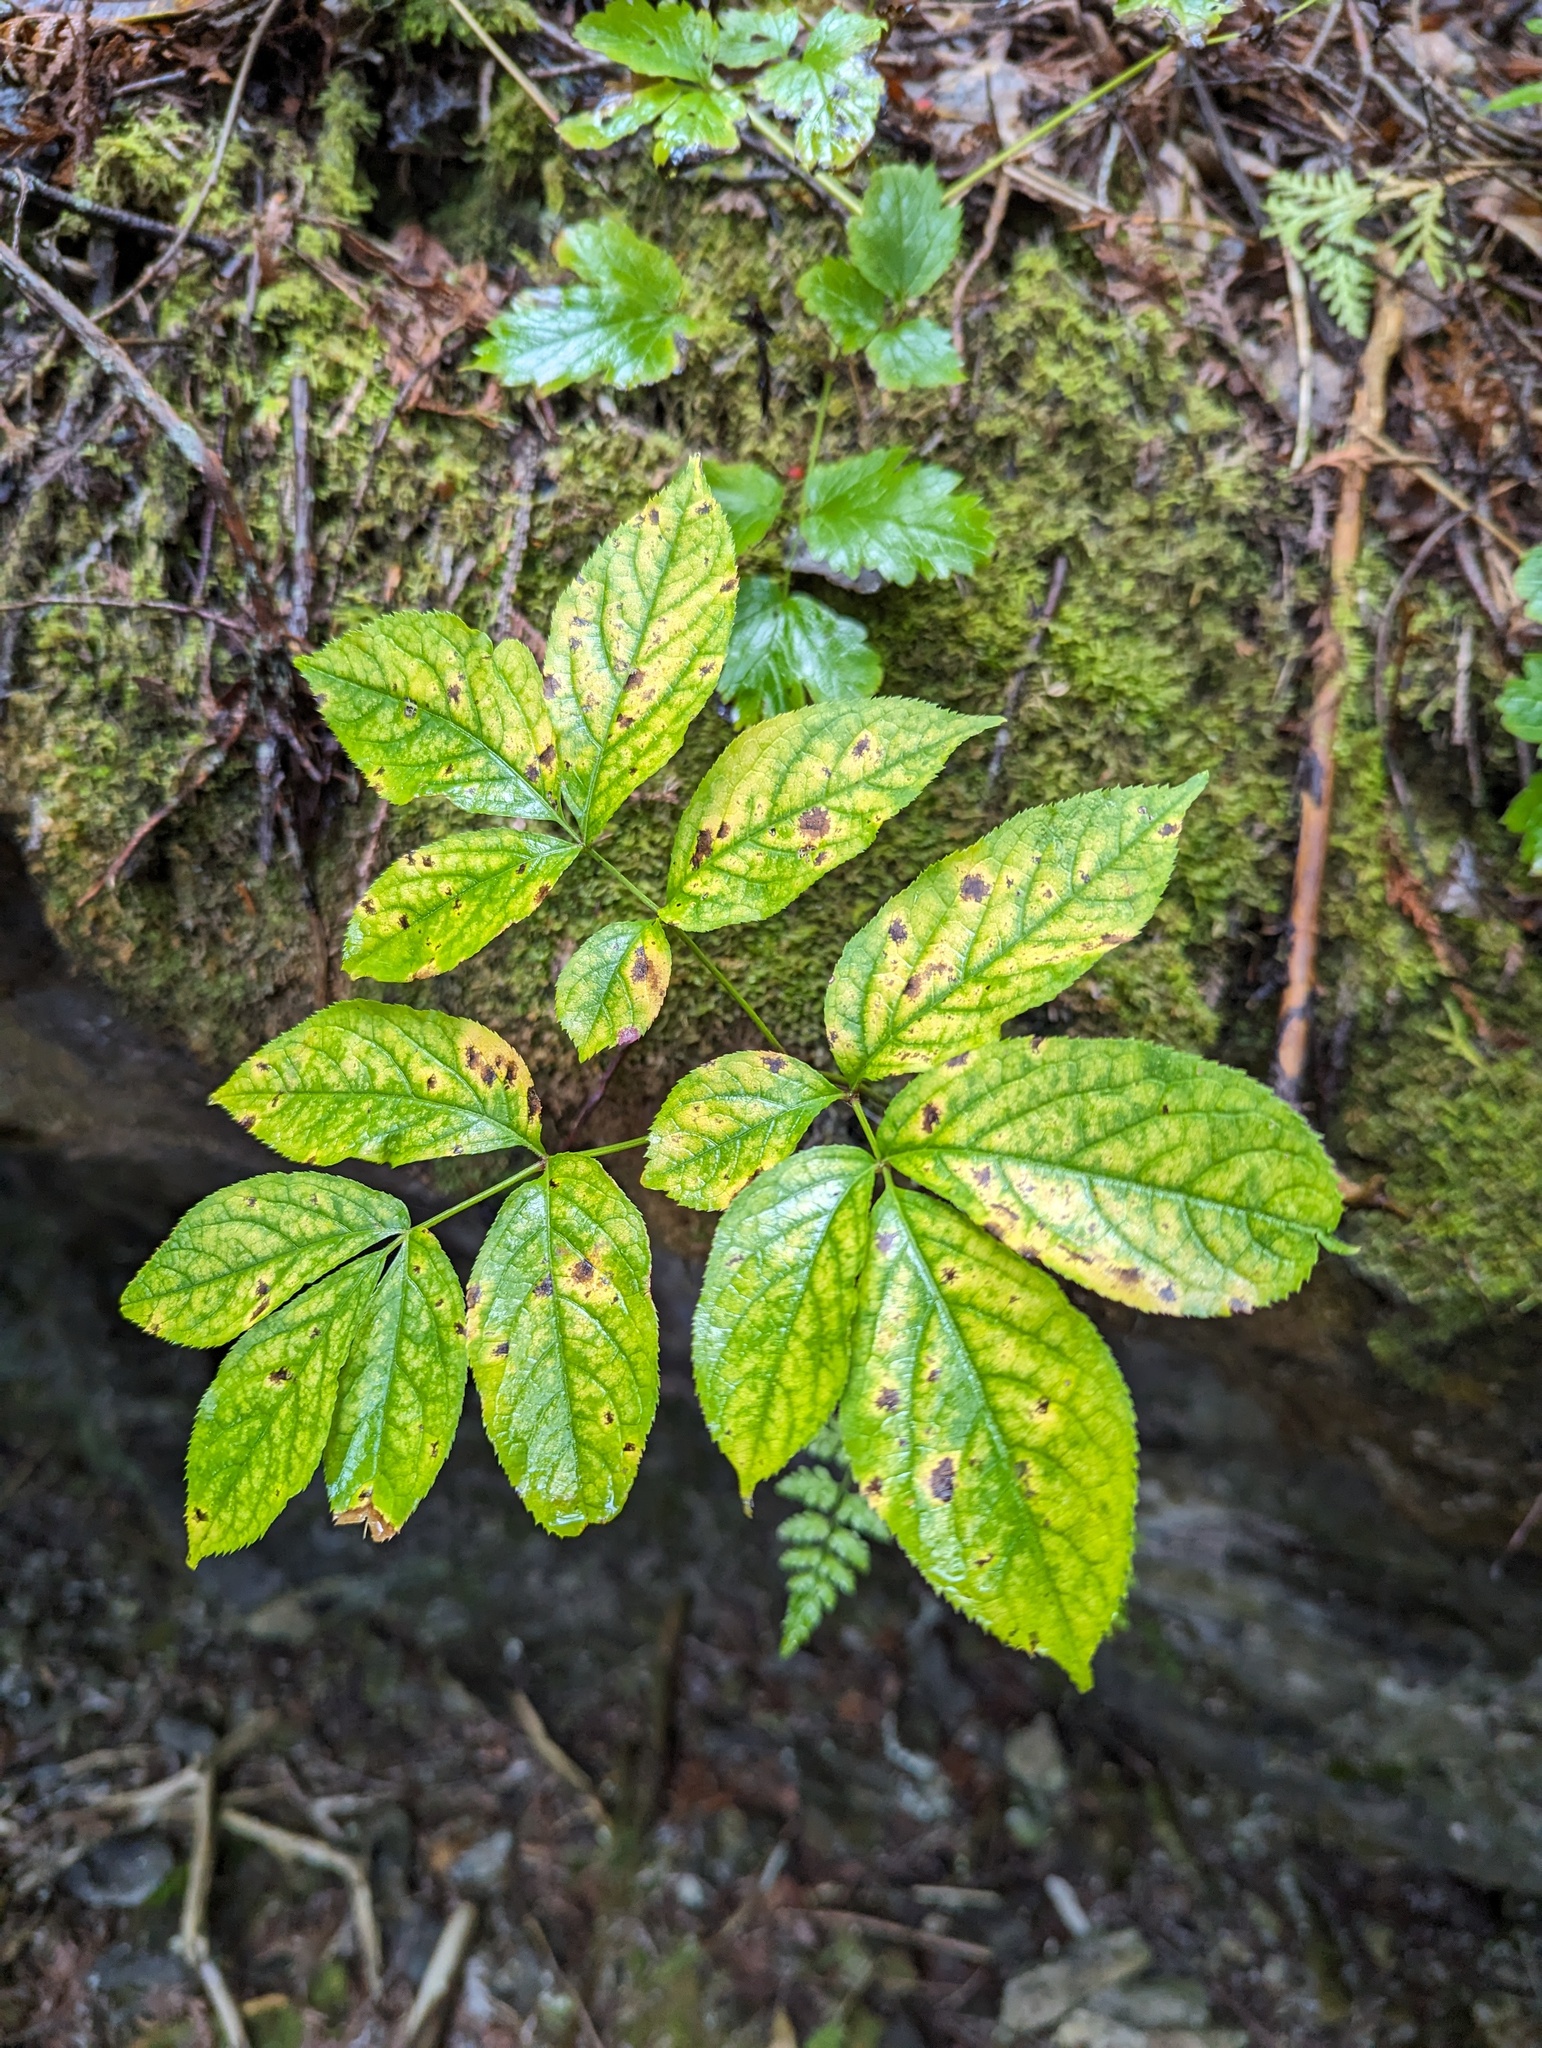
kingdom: Plantae
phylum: Tracheophyta
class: Magnoliopsida
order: Apiales
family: Araliaceae
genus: Aralia
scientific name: Aralia nudicaulis
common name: Wild sarsaparilla
